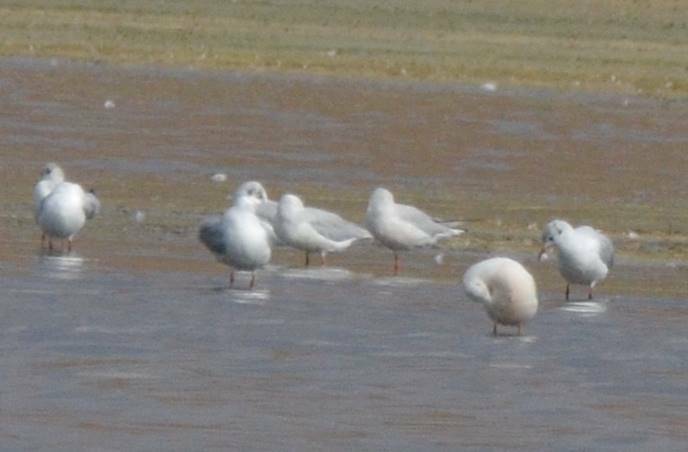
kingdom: Animalia
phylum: Chordata
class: Aves
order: Charadriiformes
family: Laridae
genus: Chroicocephalus
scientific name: Chroicocephalus ridibundus
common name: Black-headed gull
